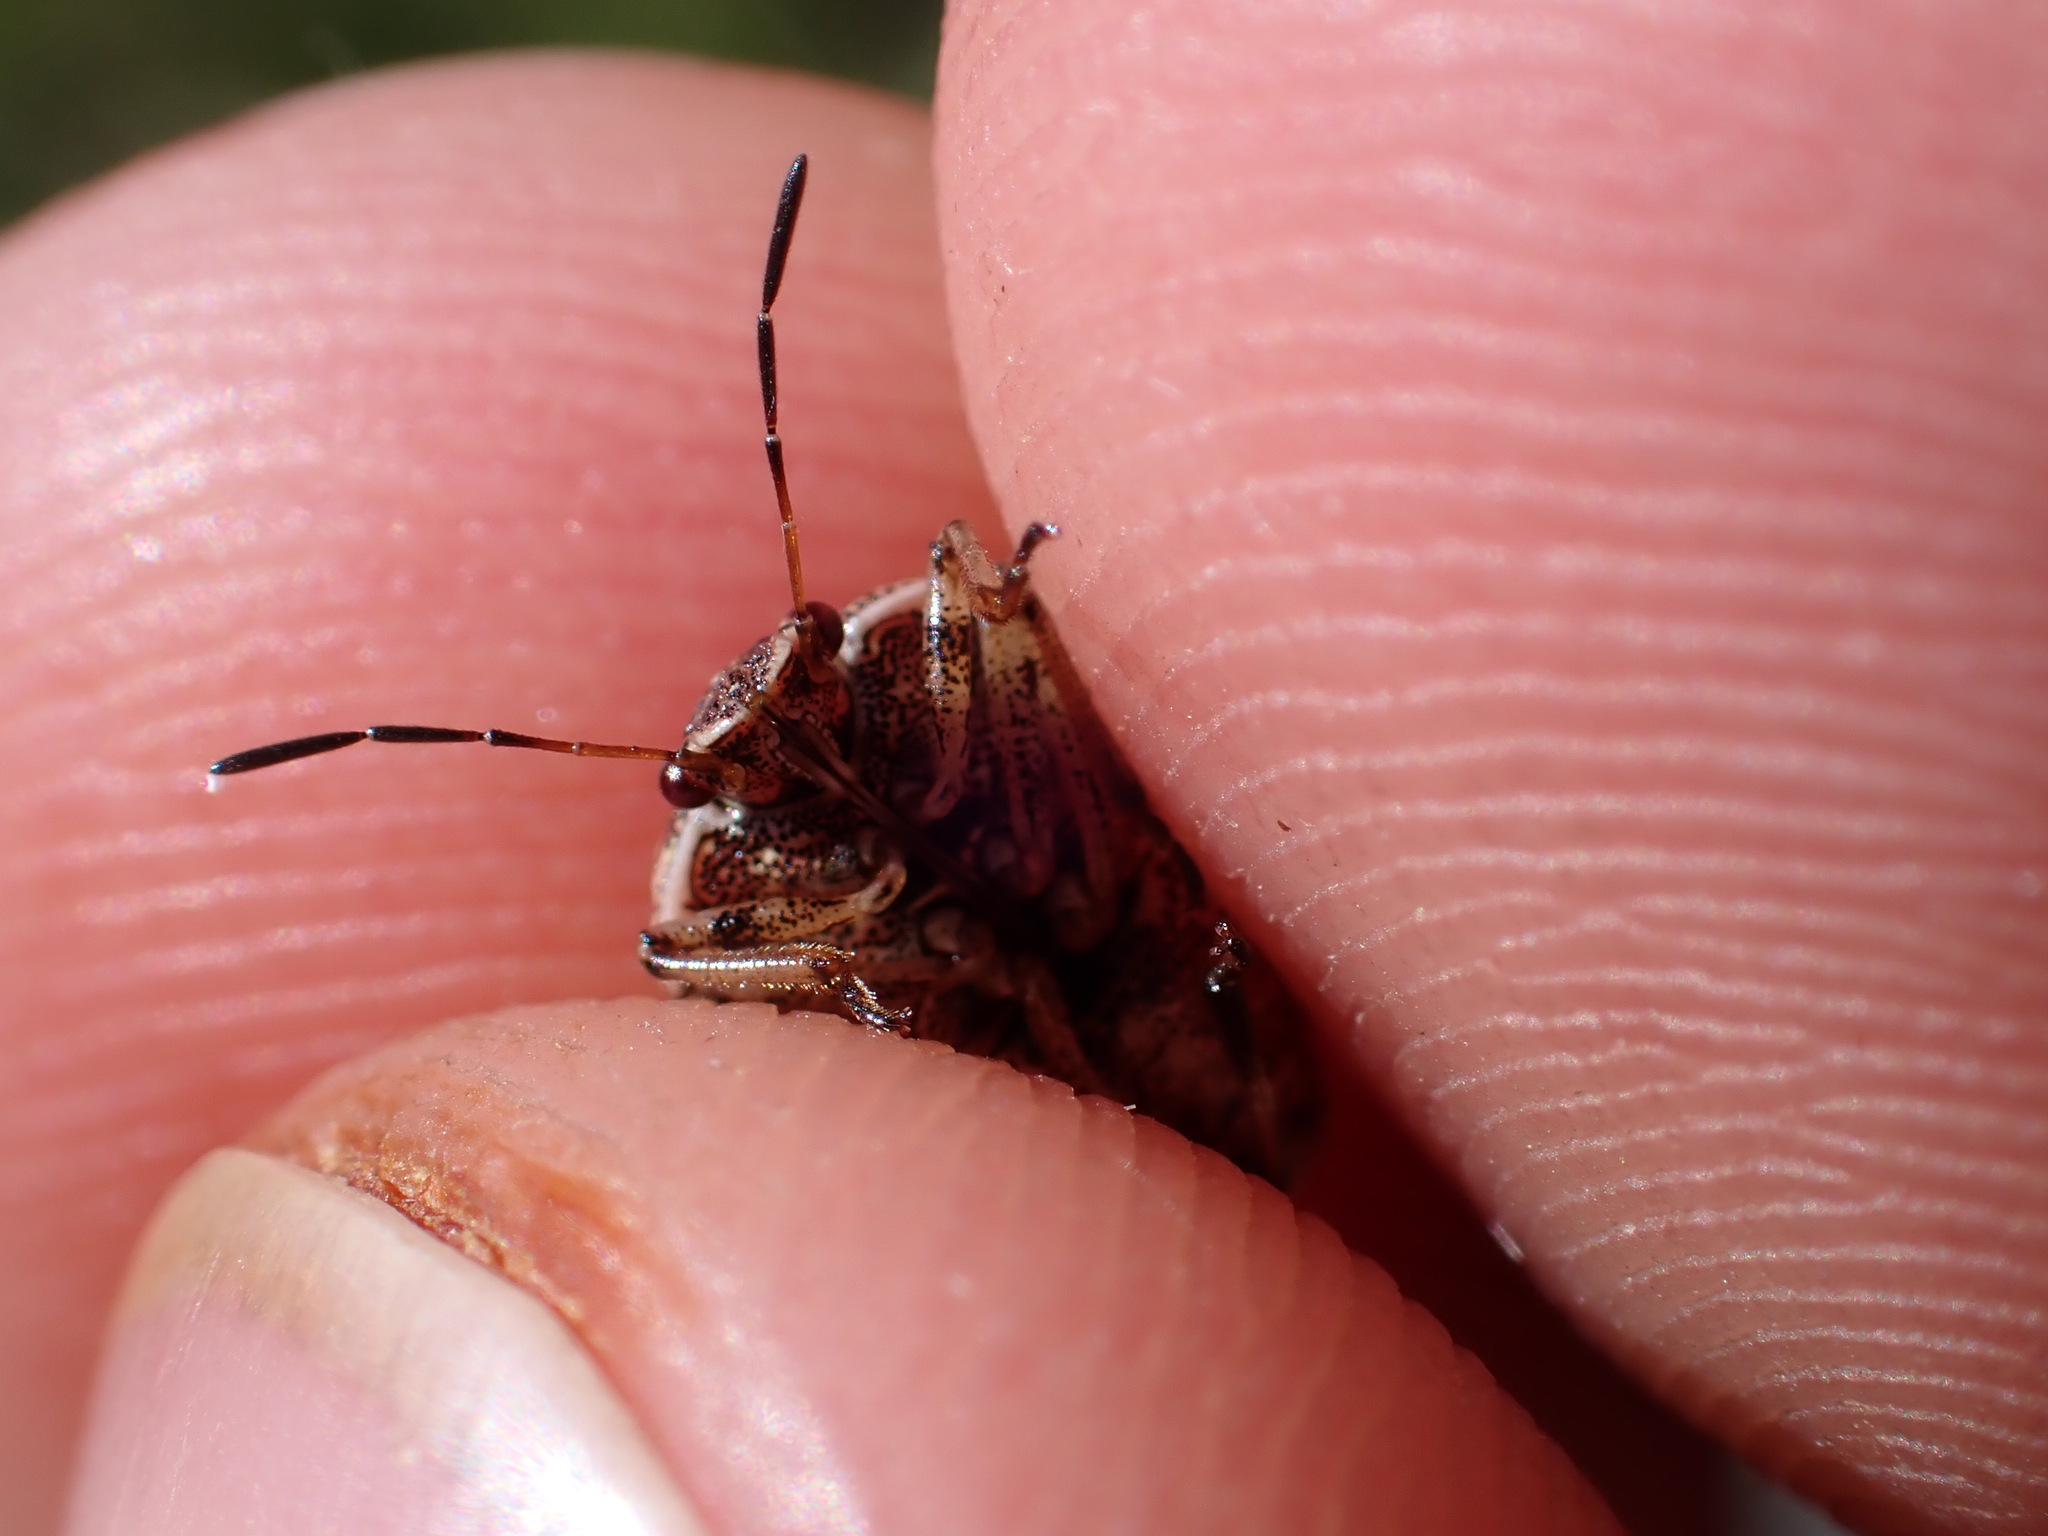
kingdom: Animalia
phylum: Arthropoda
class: Insecta
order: Hemiptera
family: Pentatomidae
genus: Stagonomus
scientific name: Stagonomus amoenus
